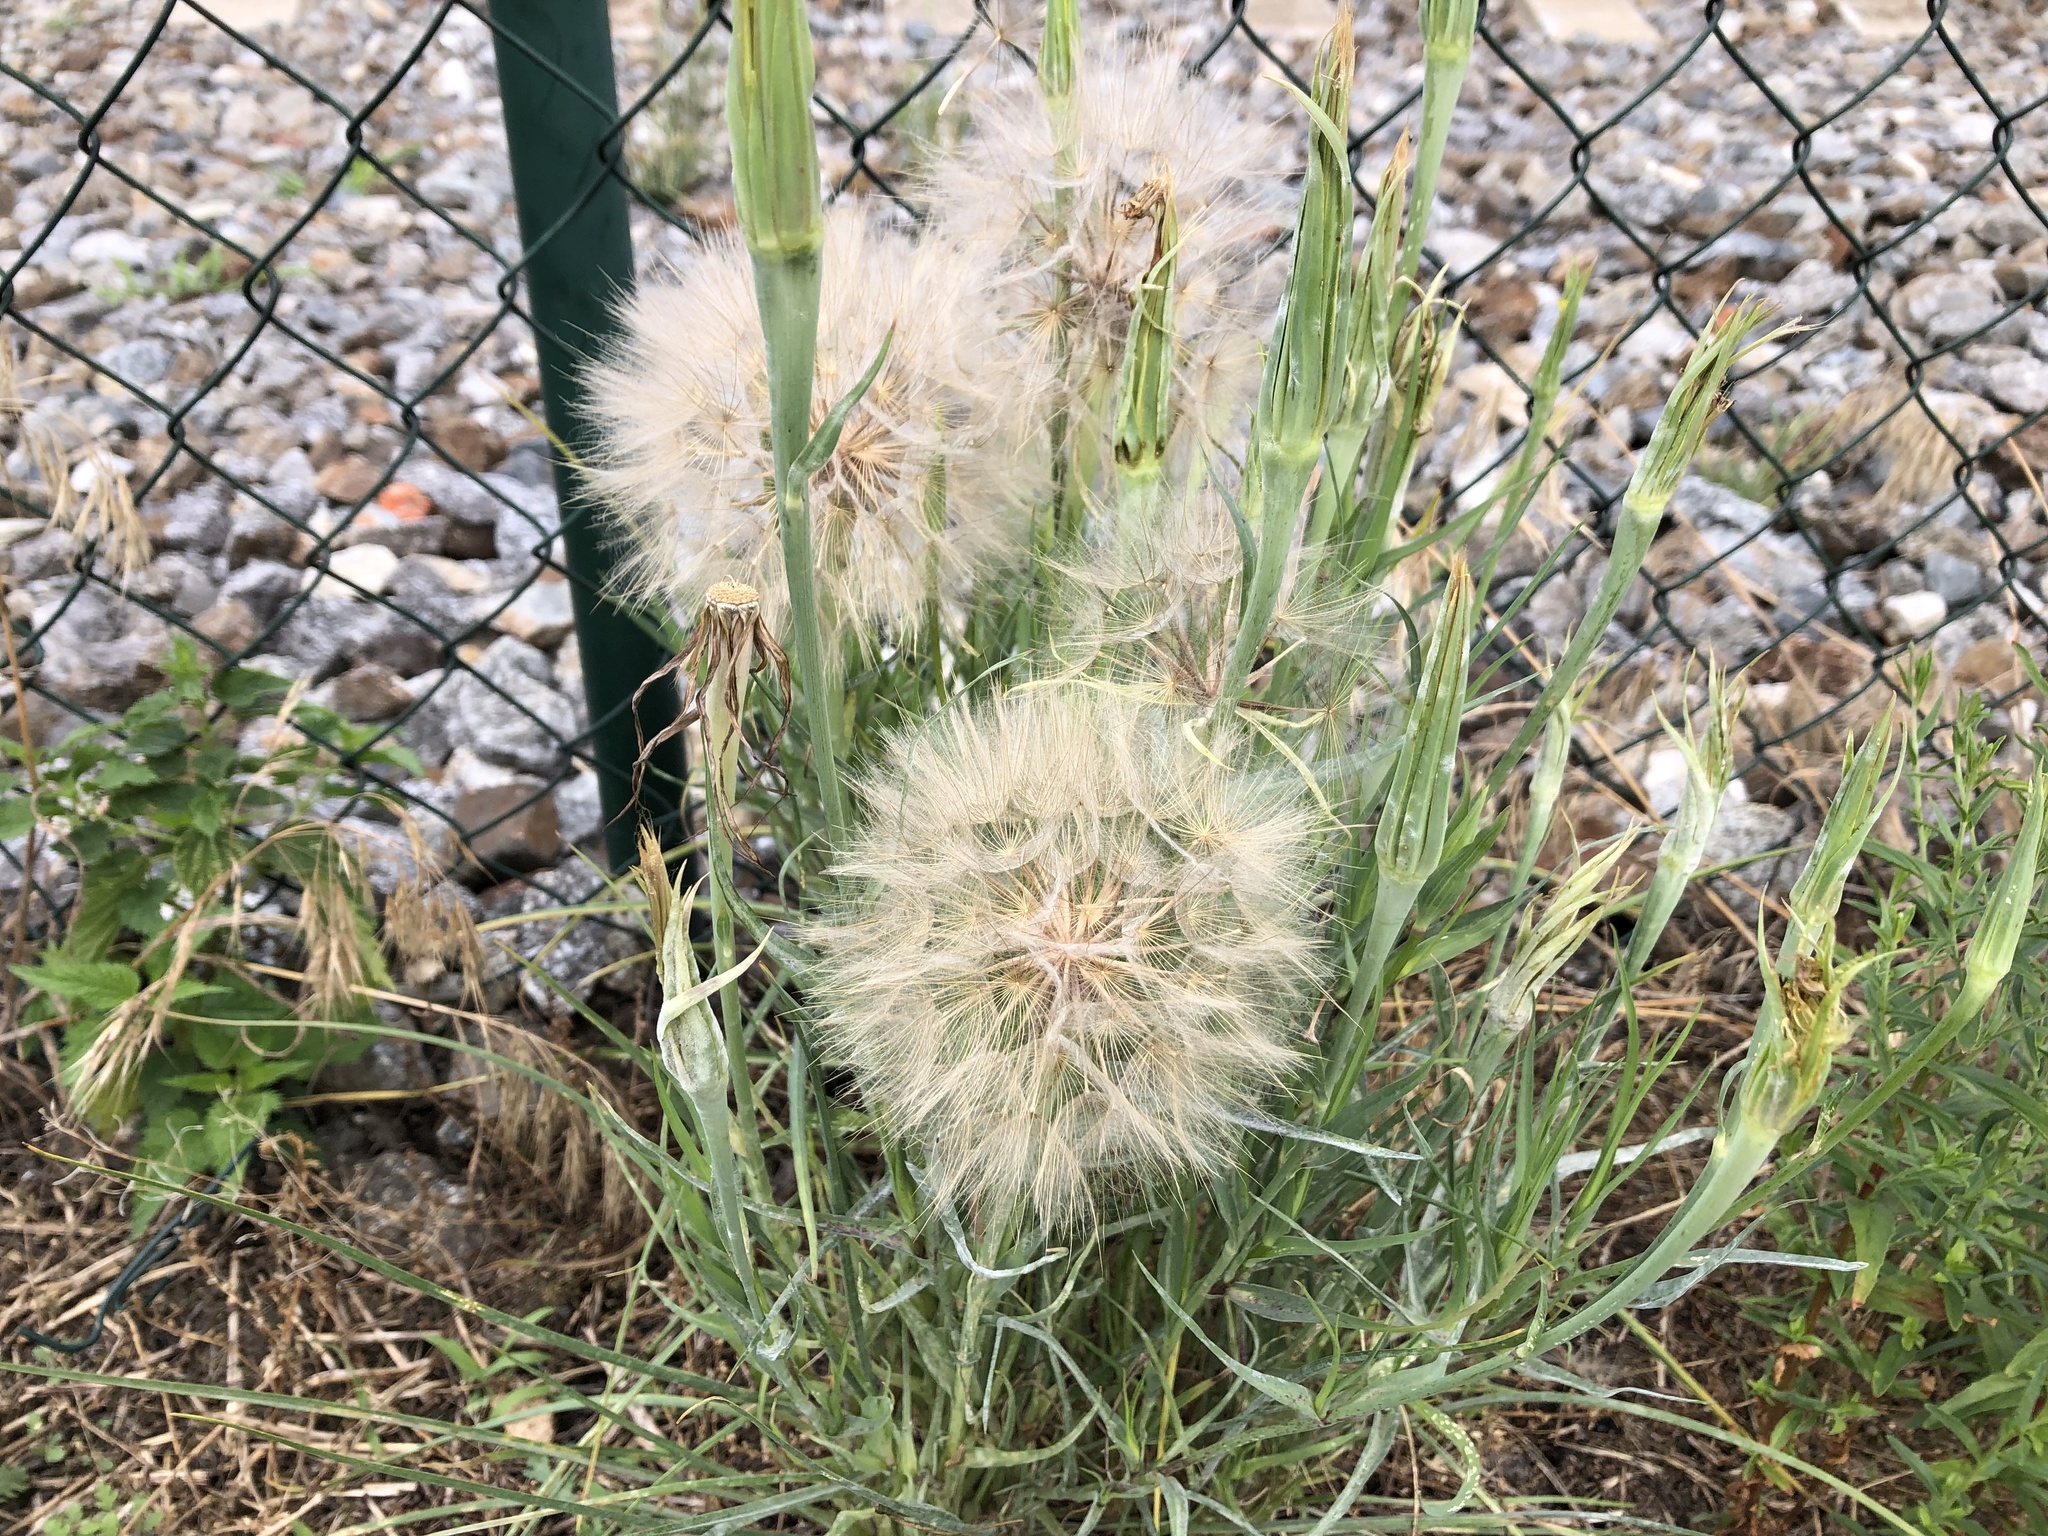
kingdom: Plantae
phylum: Tracheophyta
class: Magnoliopsida
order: Asterales
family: Asteraceae
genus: Tragopogon
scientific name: Tragopogon dubius
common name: Yellow salsify
